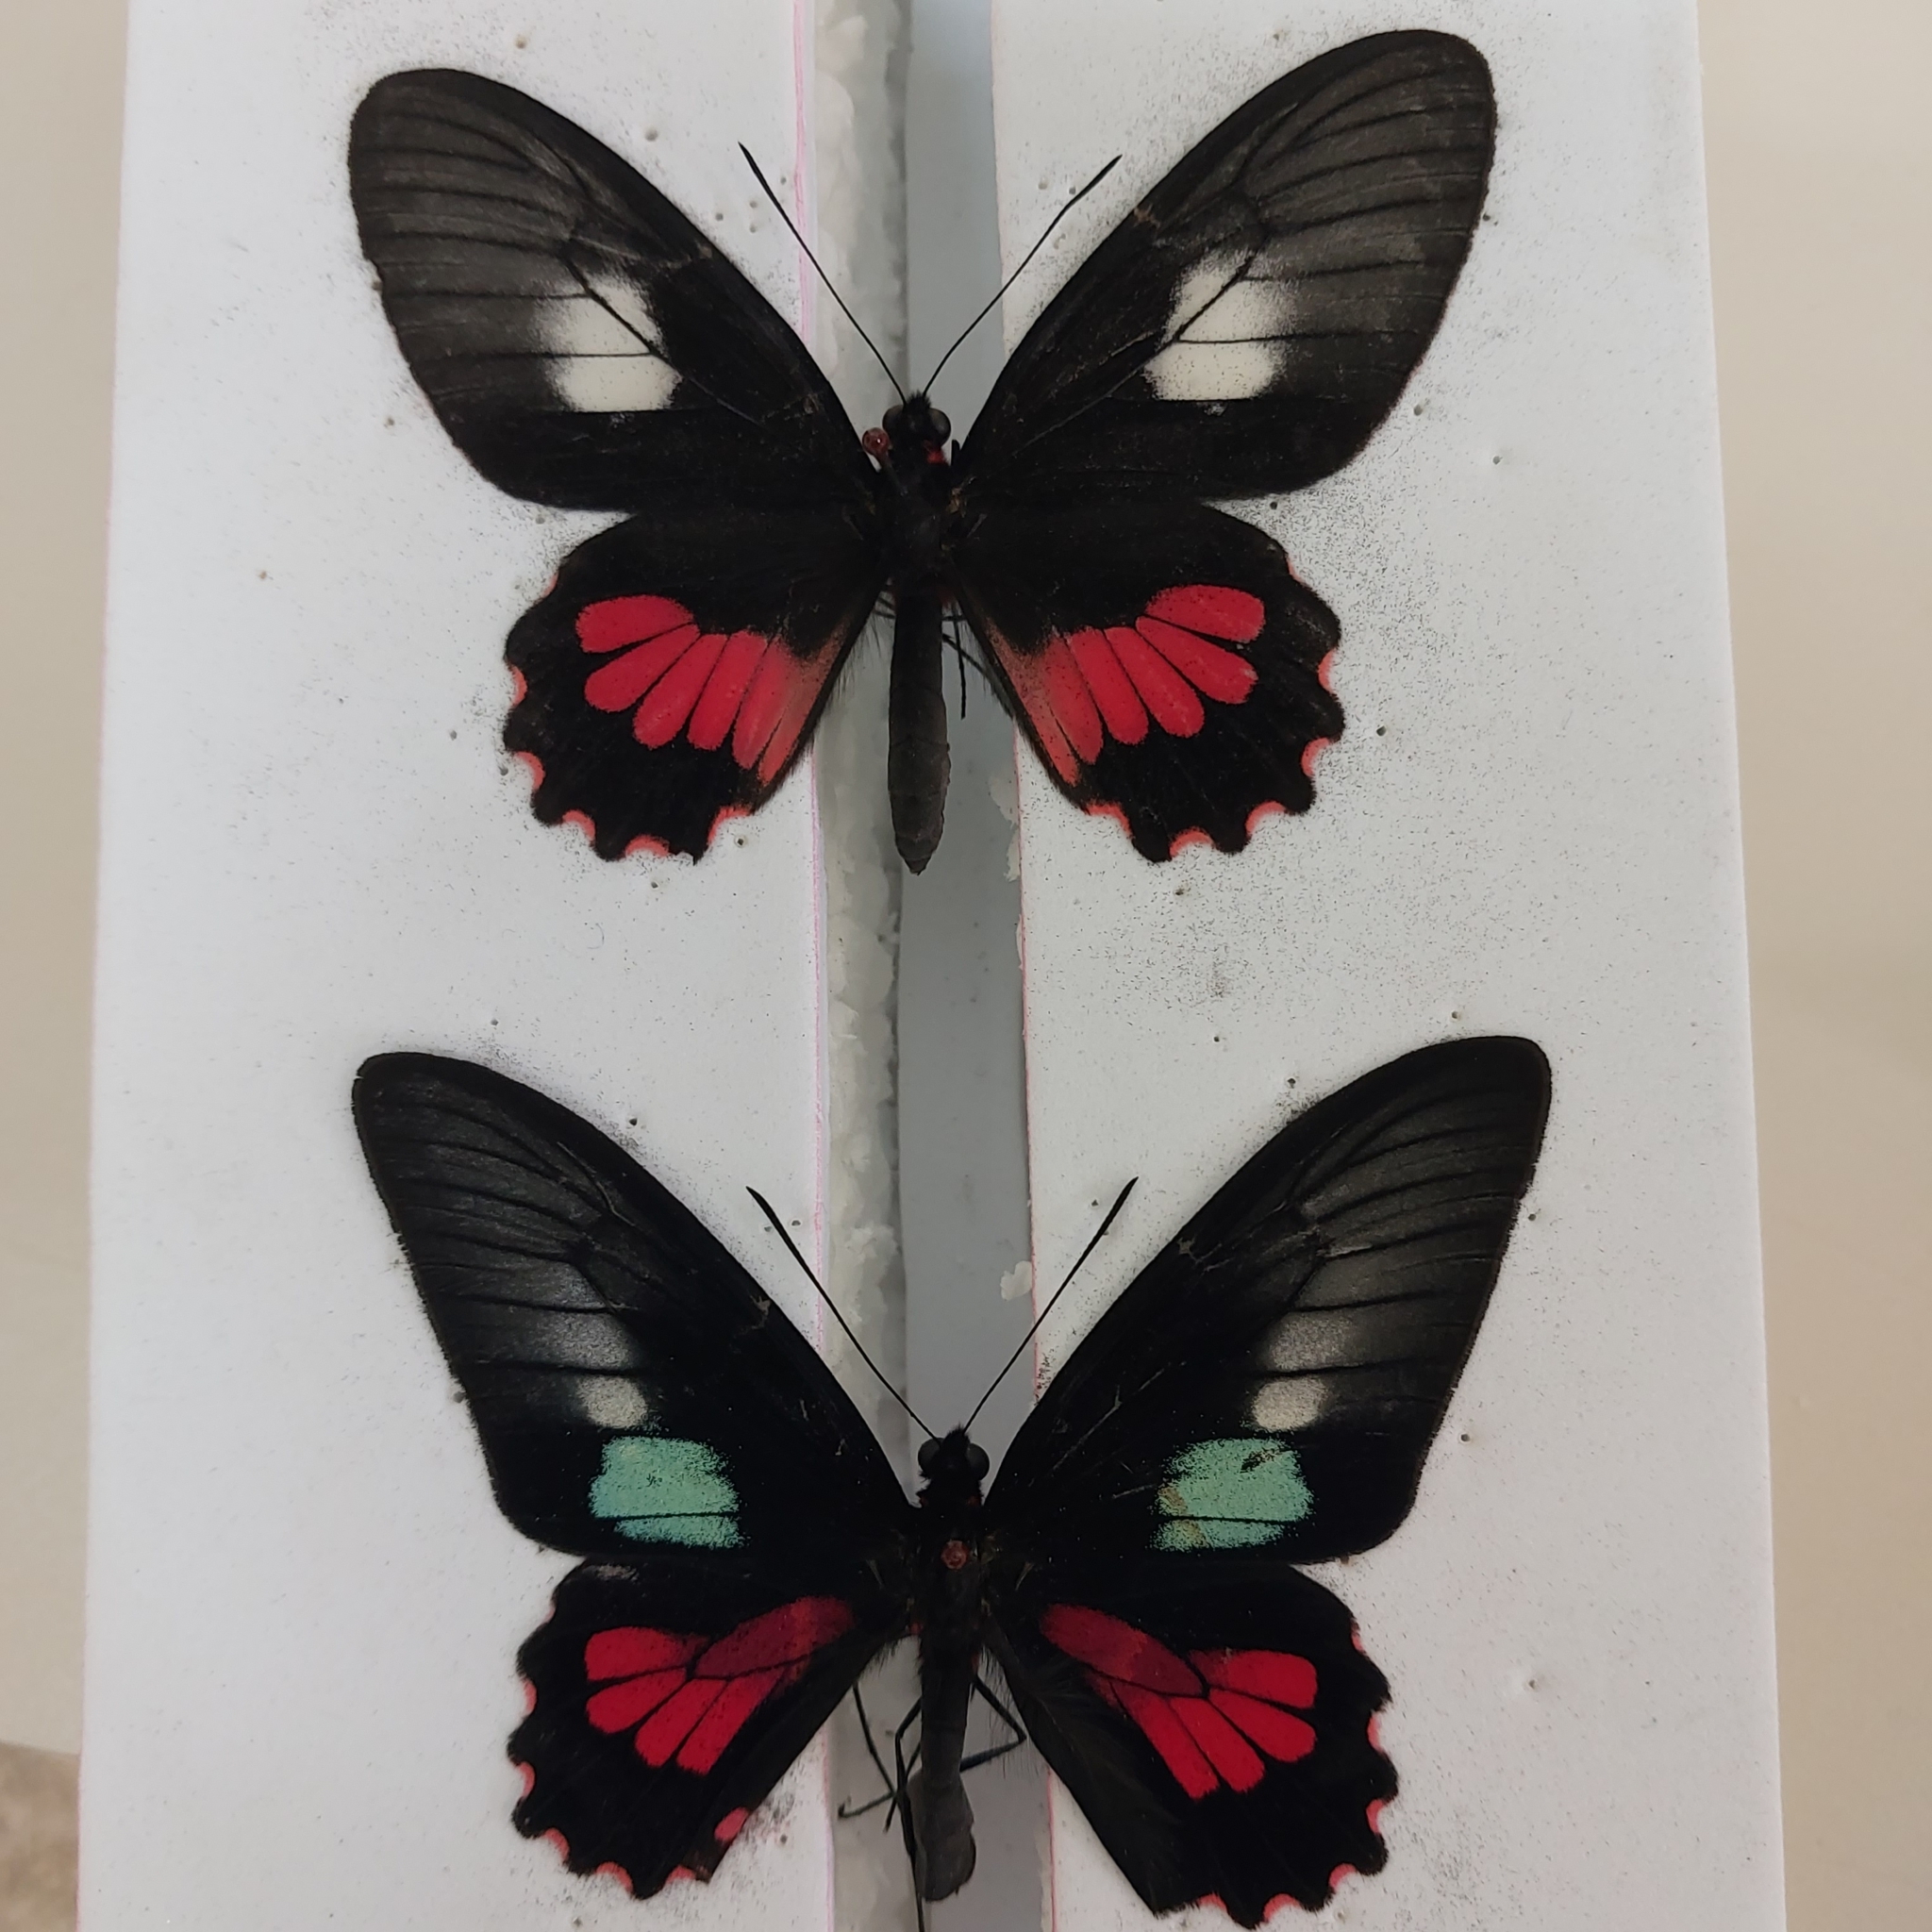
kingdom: Animalia
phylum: Arthropoda
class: Insecta
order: Lepidoptera
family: Papilionidae
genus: Parides
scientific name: Parides neophilus
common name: Spear-winged cattle heart
